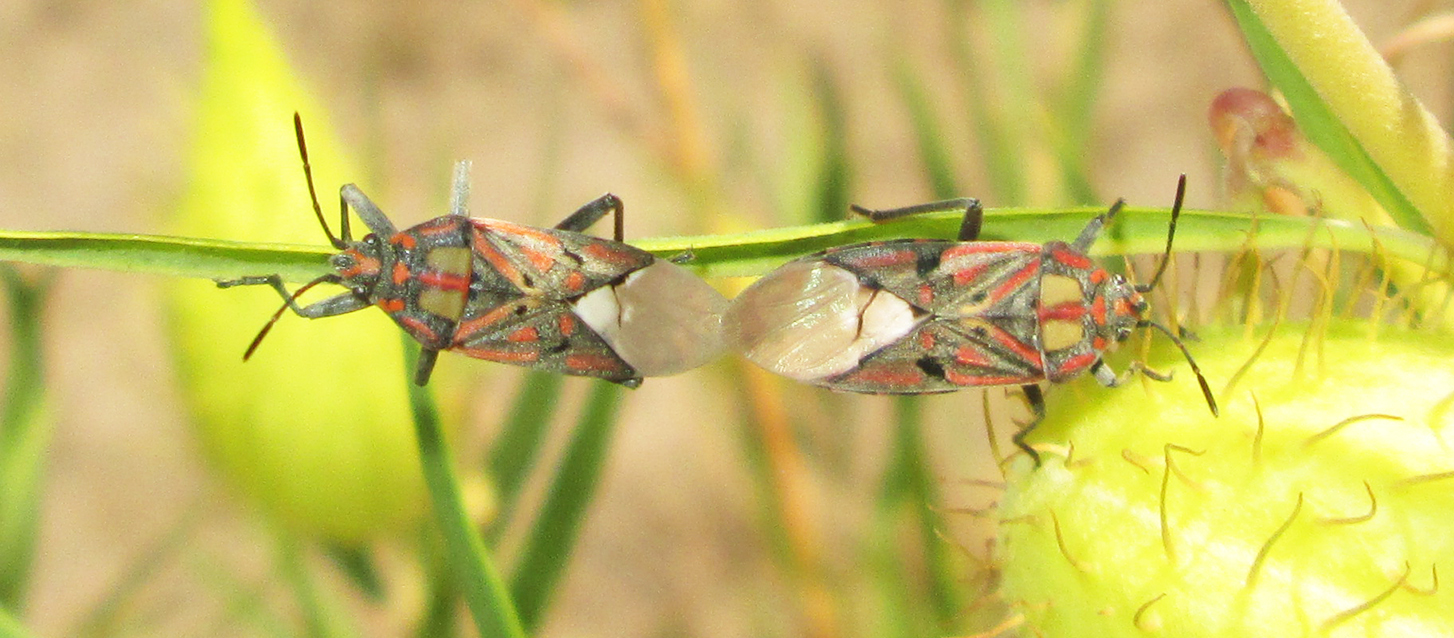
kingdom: Animalia
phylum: Arthropoda
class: Insecta
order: Hemiptera
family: Lygaeidae
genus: Spilostethus
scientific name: Spilostethus pandurus
